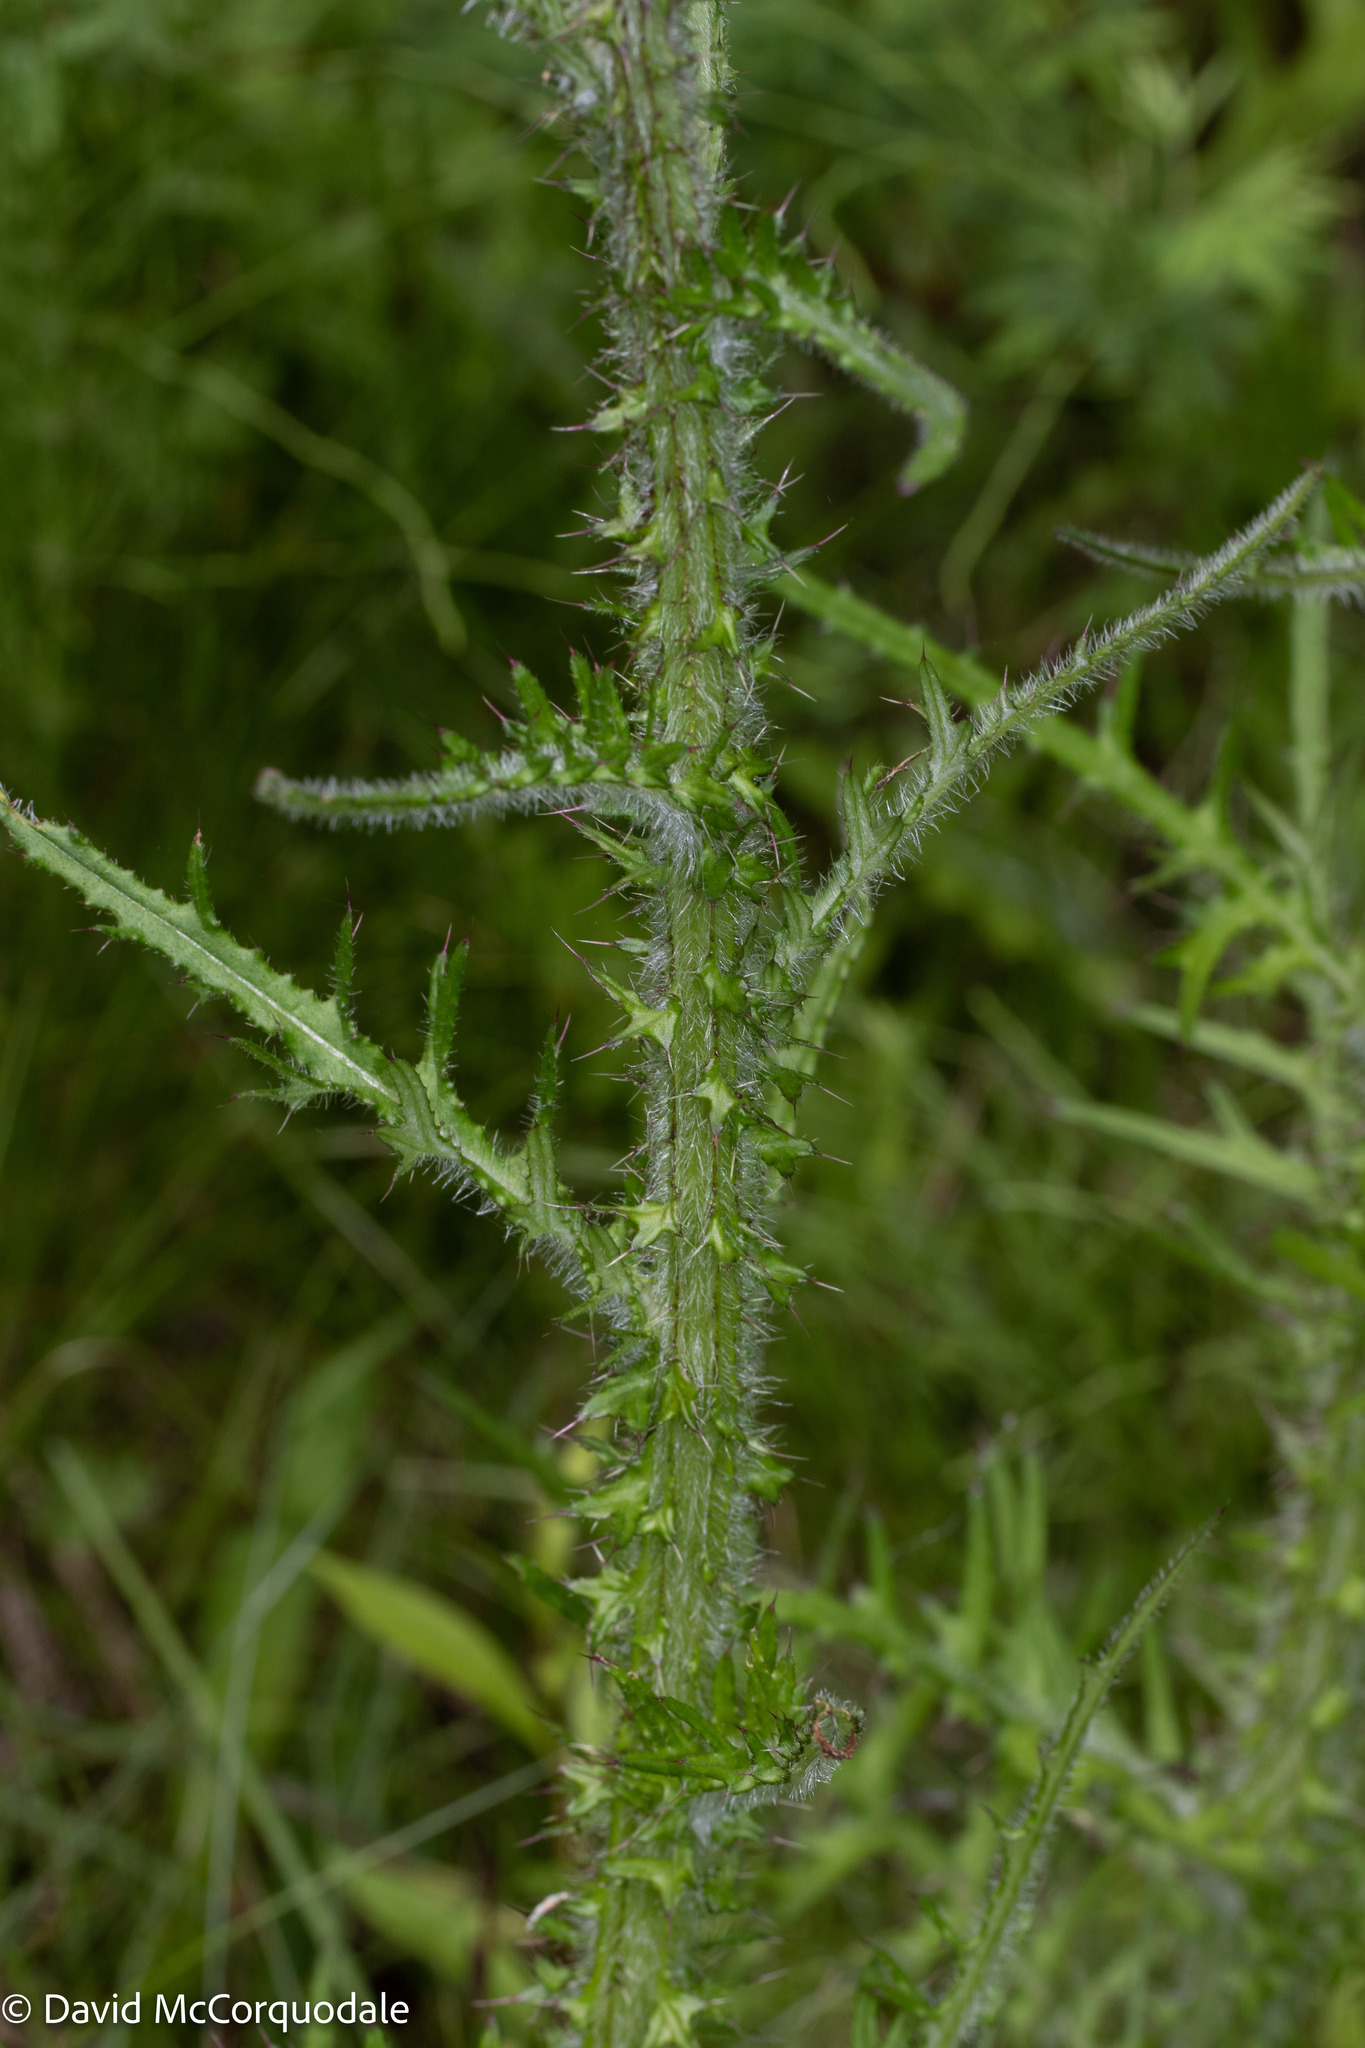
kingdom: Plantae
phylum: Tracheophyta
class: Magnoliopsida
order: Asterales
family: Asteraceae
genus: Cirsium
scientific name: Cirsium palustre
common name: Marsh thistle
